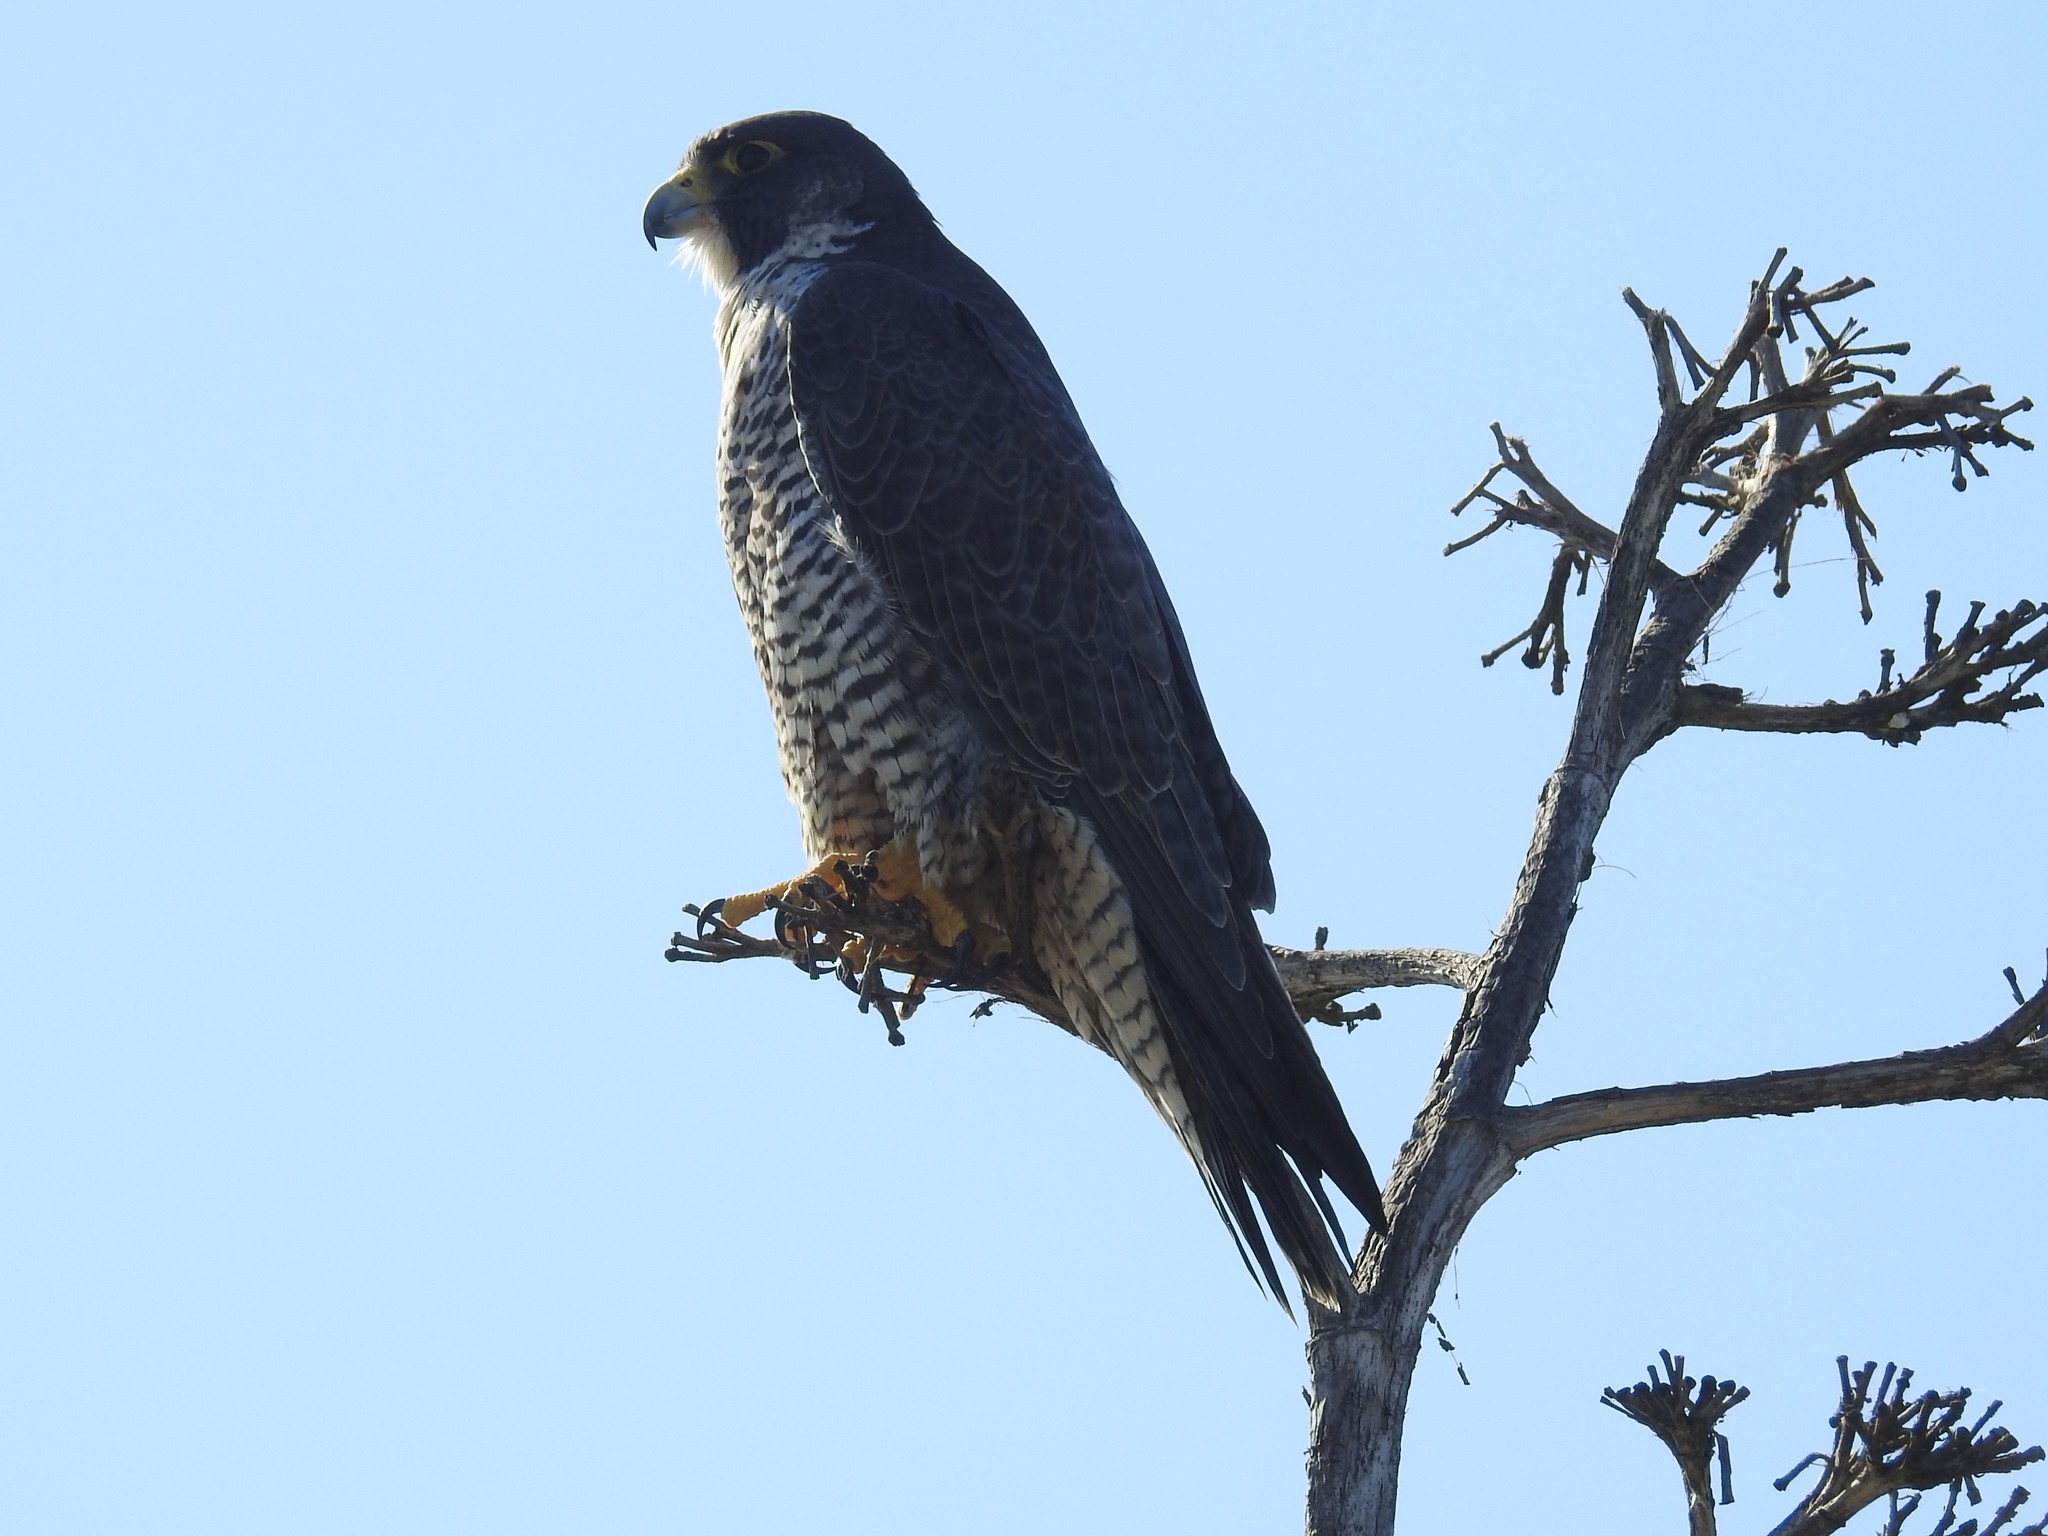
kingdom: Animalia
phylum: Chordata
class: Aves
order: Falconiformes
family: Falconidae
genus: Falco
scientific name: Falco peregrinus
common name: Peregrine falcon
